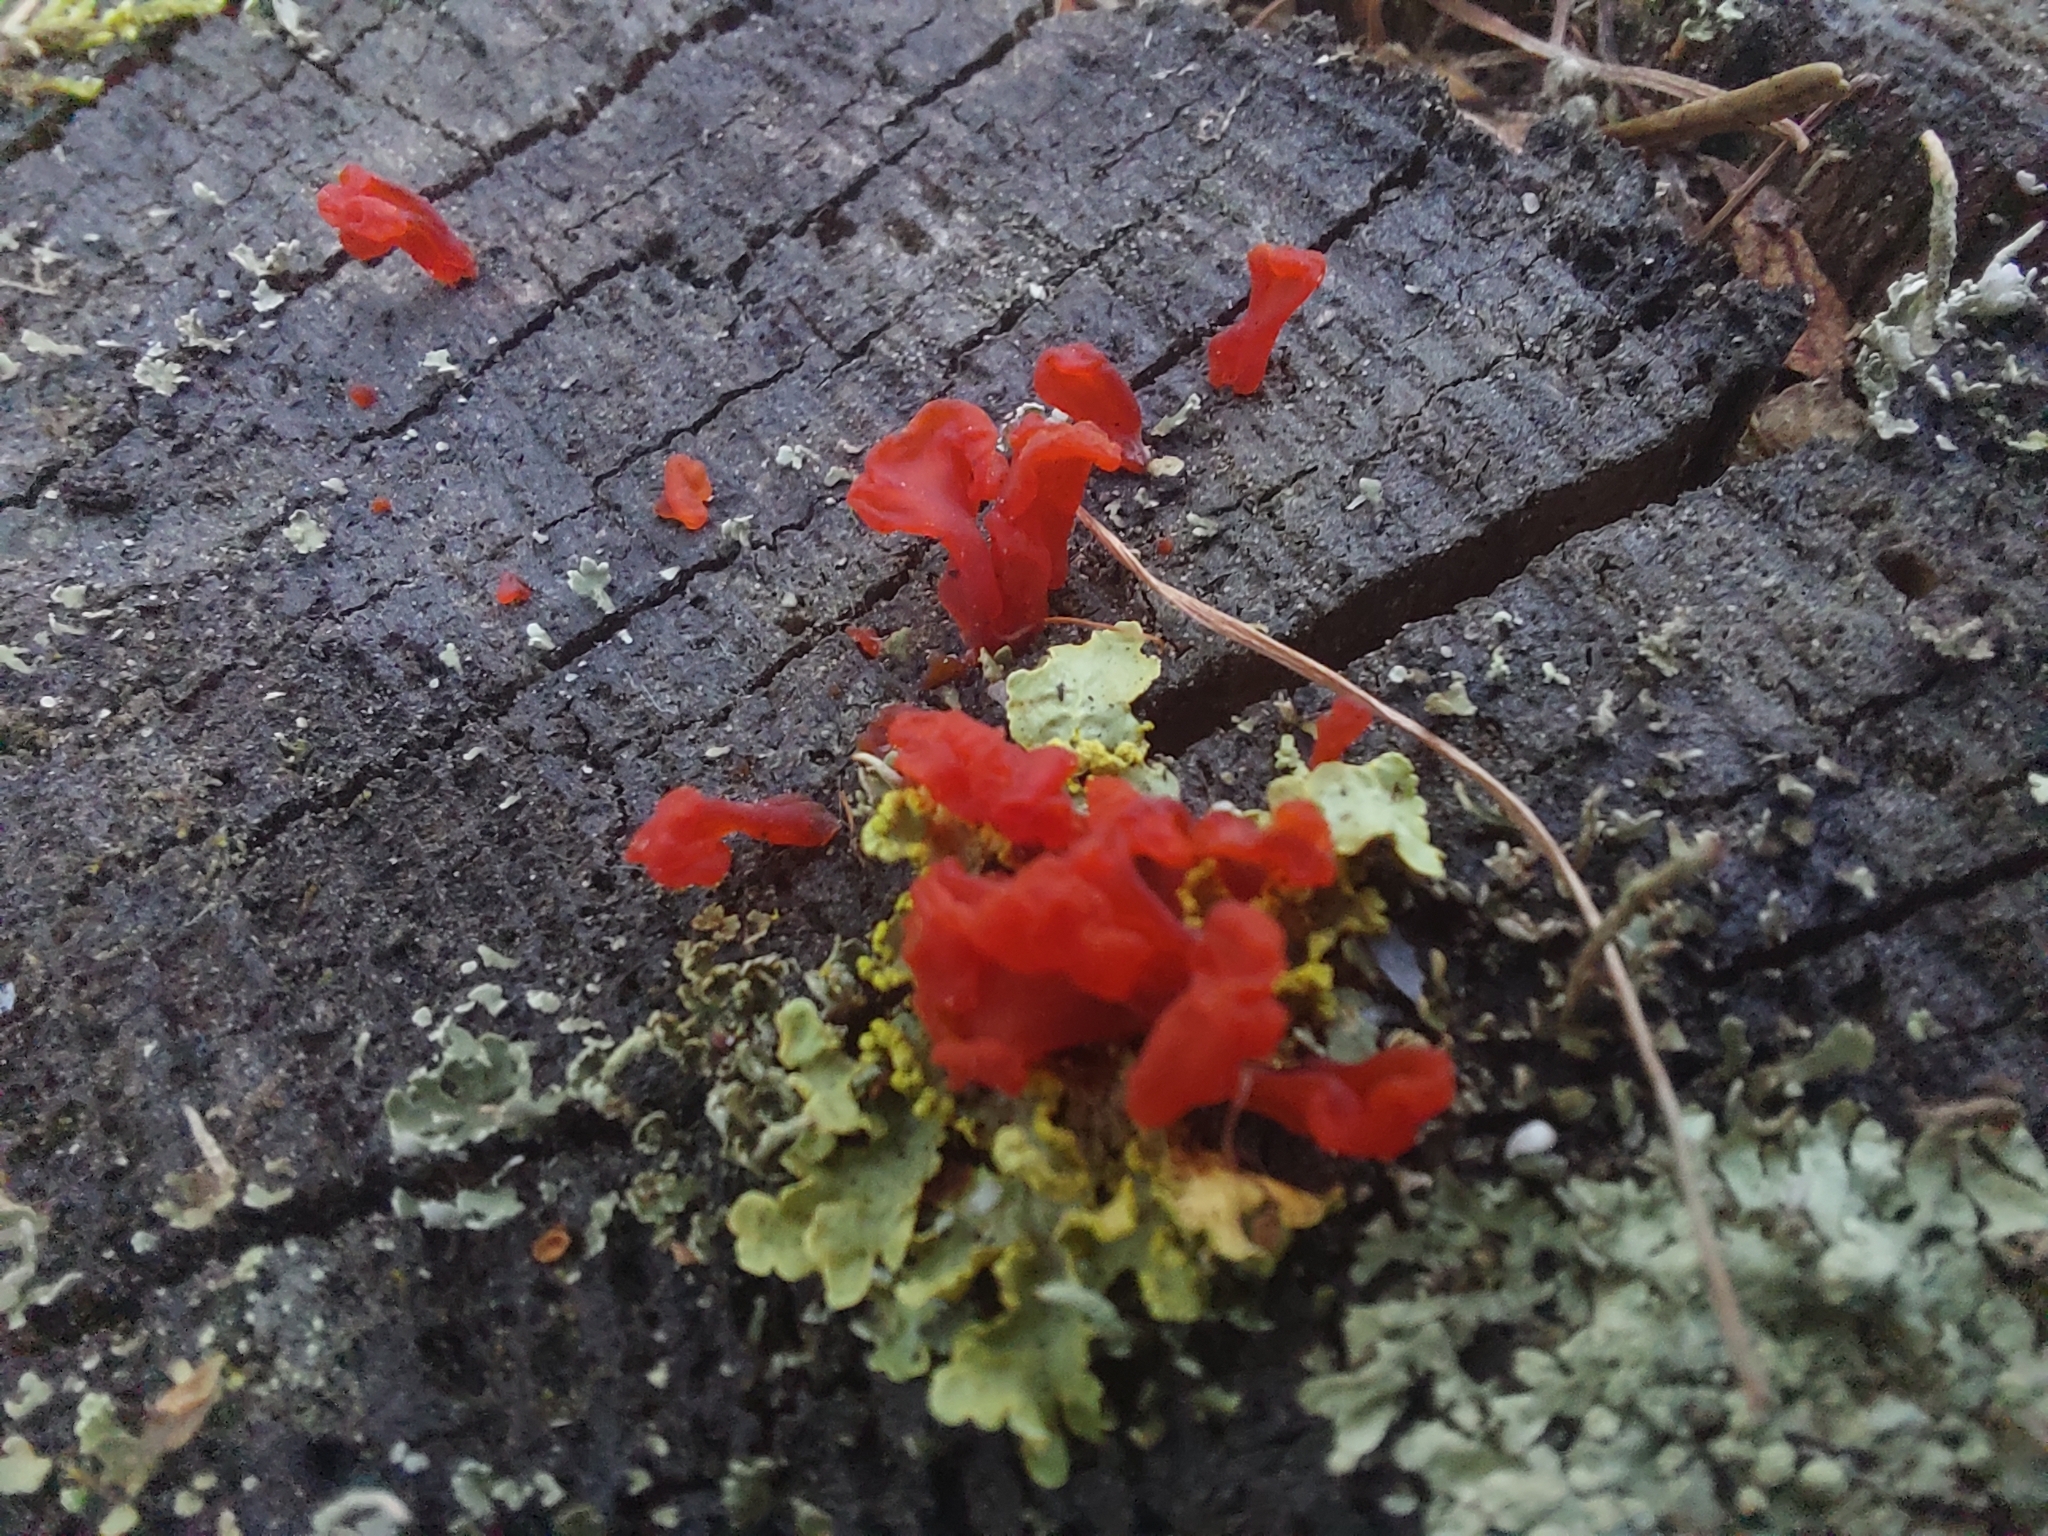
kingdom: Fungi
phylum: Ascomycota
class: Lecanoromycetes
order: Lecanorales
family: Parmeliaceae
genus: Vulpicida
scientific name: Vulpicida pinastri
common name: Powdered sunshine lichen
